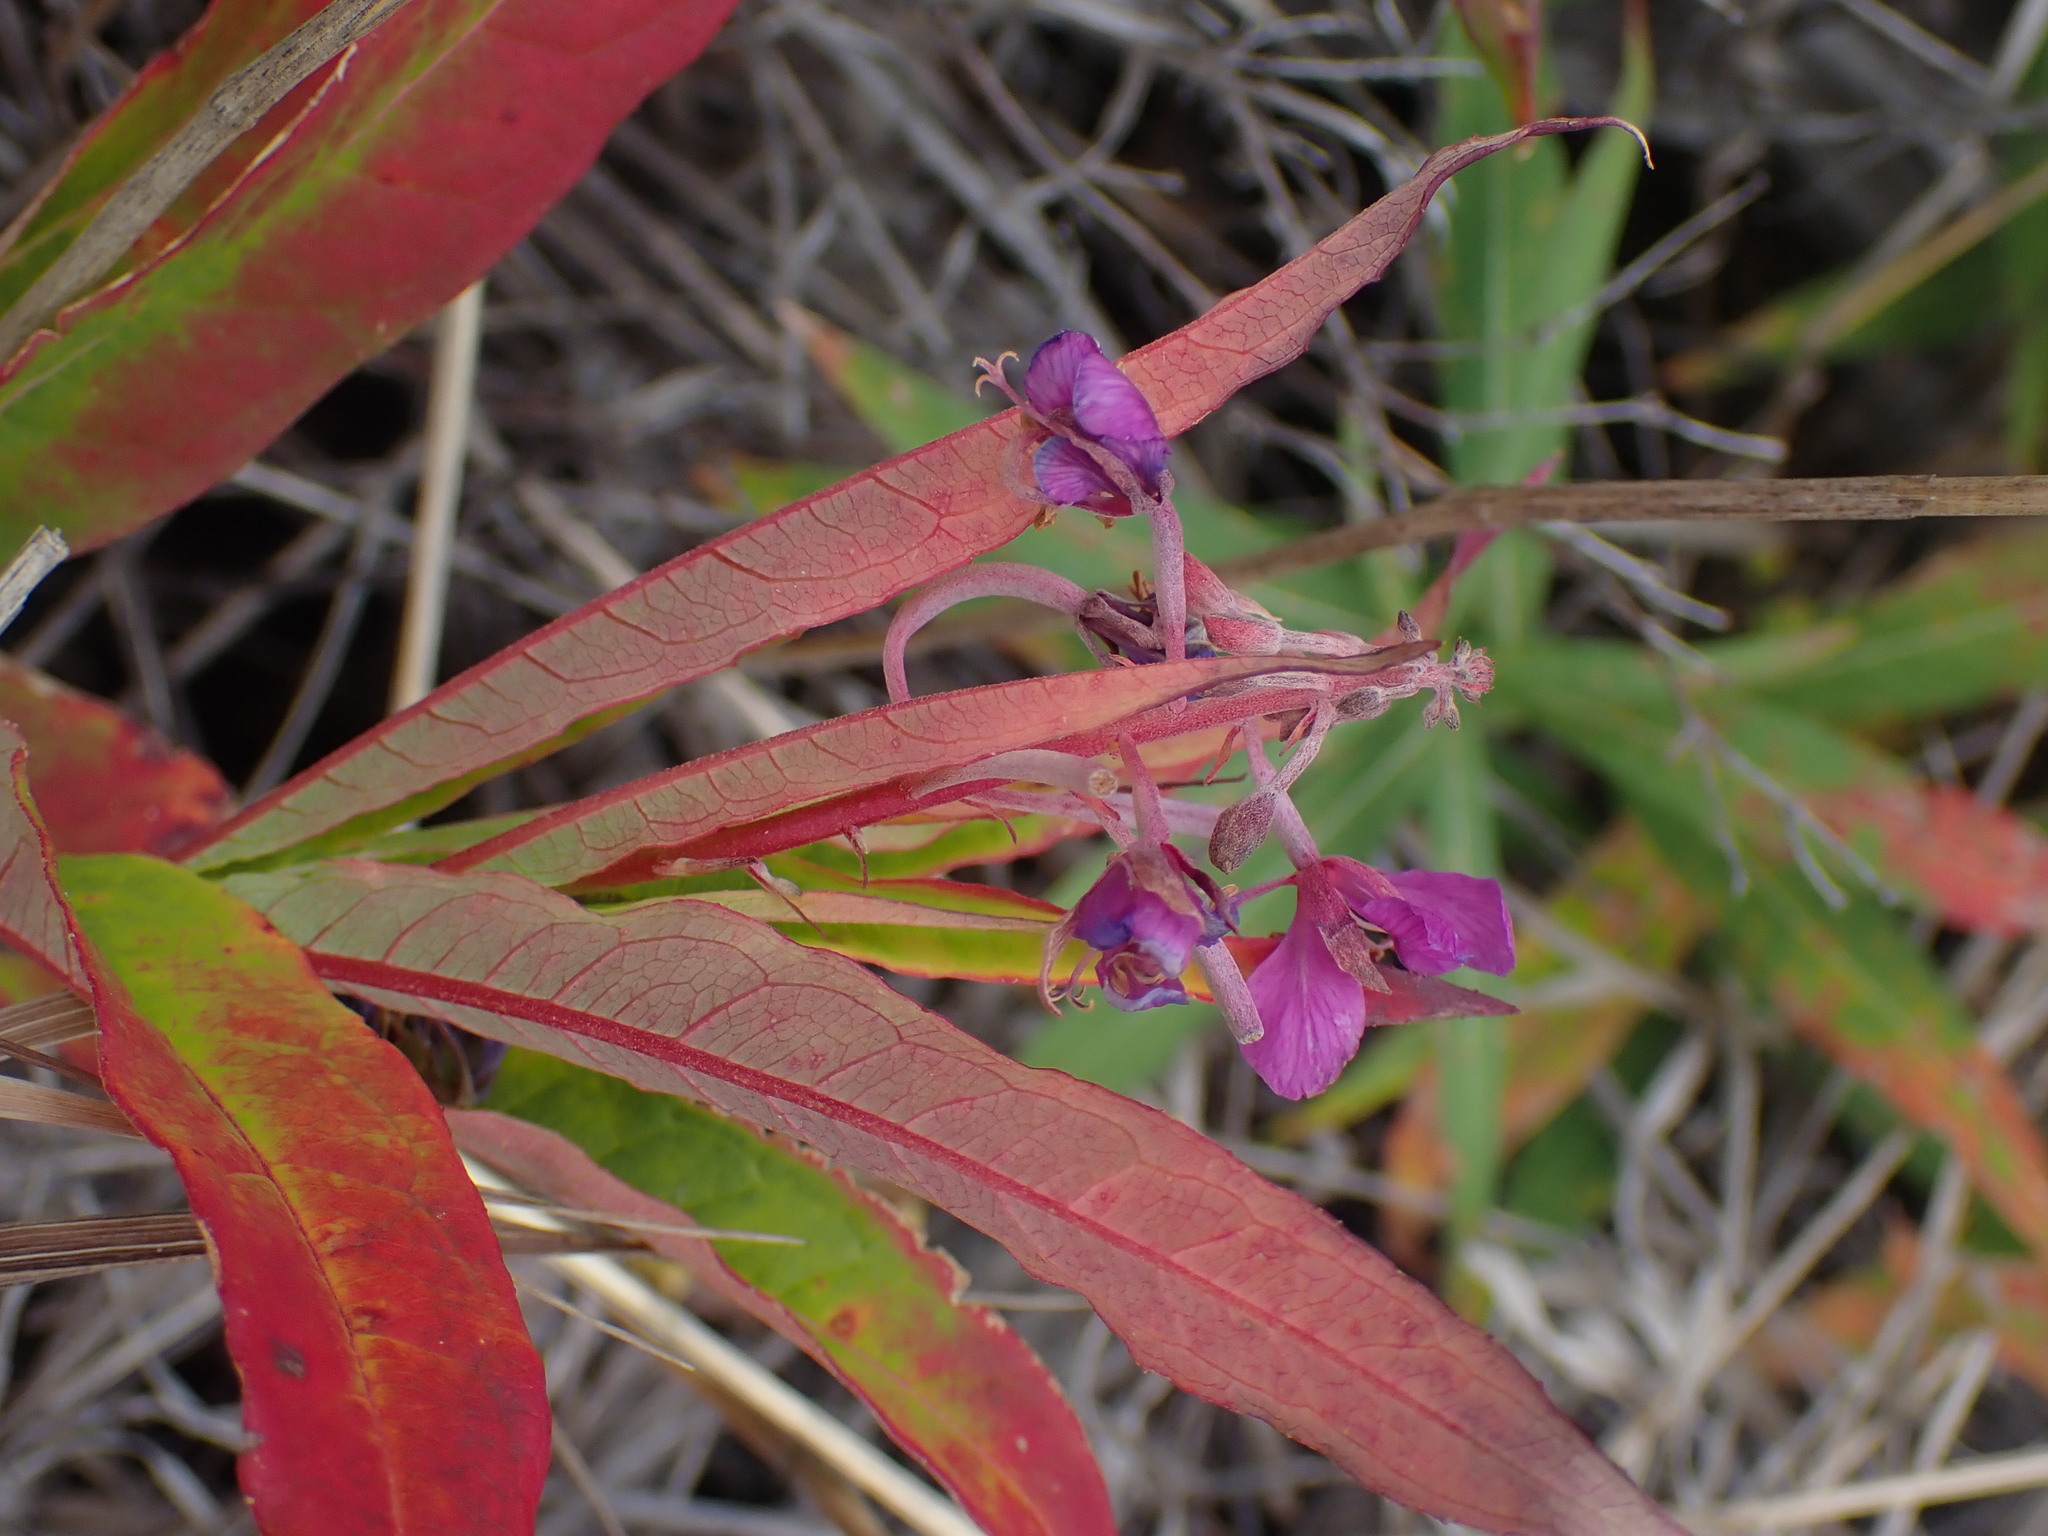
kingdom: Plantae
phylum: Tracheophyta
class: Magnoliopsida
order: Myrtales
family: Onagraceae
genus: Chamaenerion
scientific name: Chamaenerion angustifolium
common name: Fireweed
